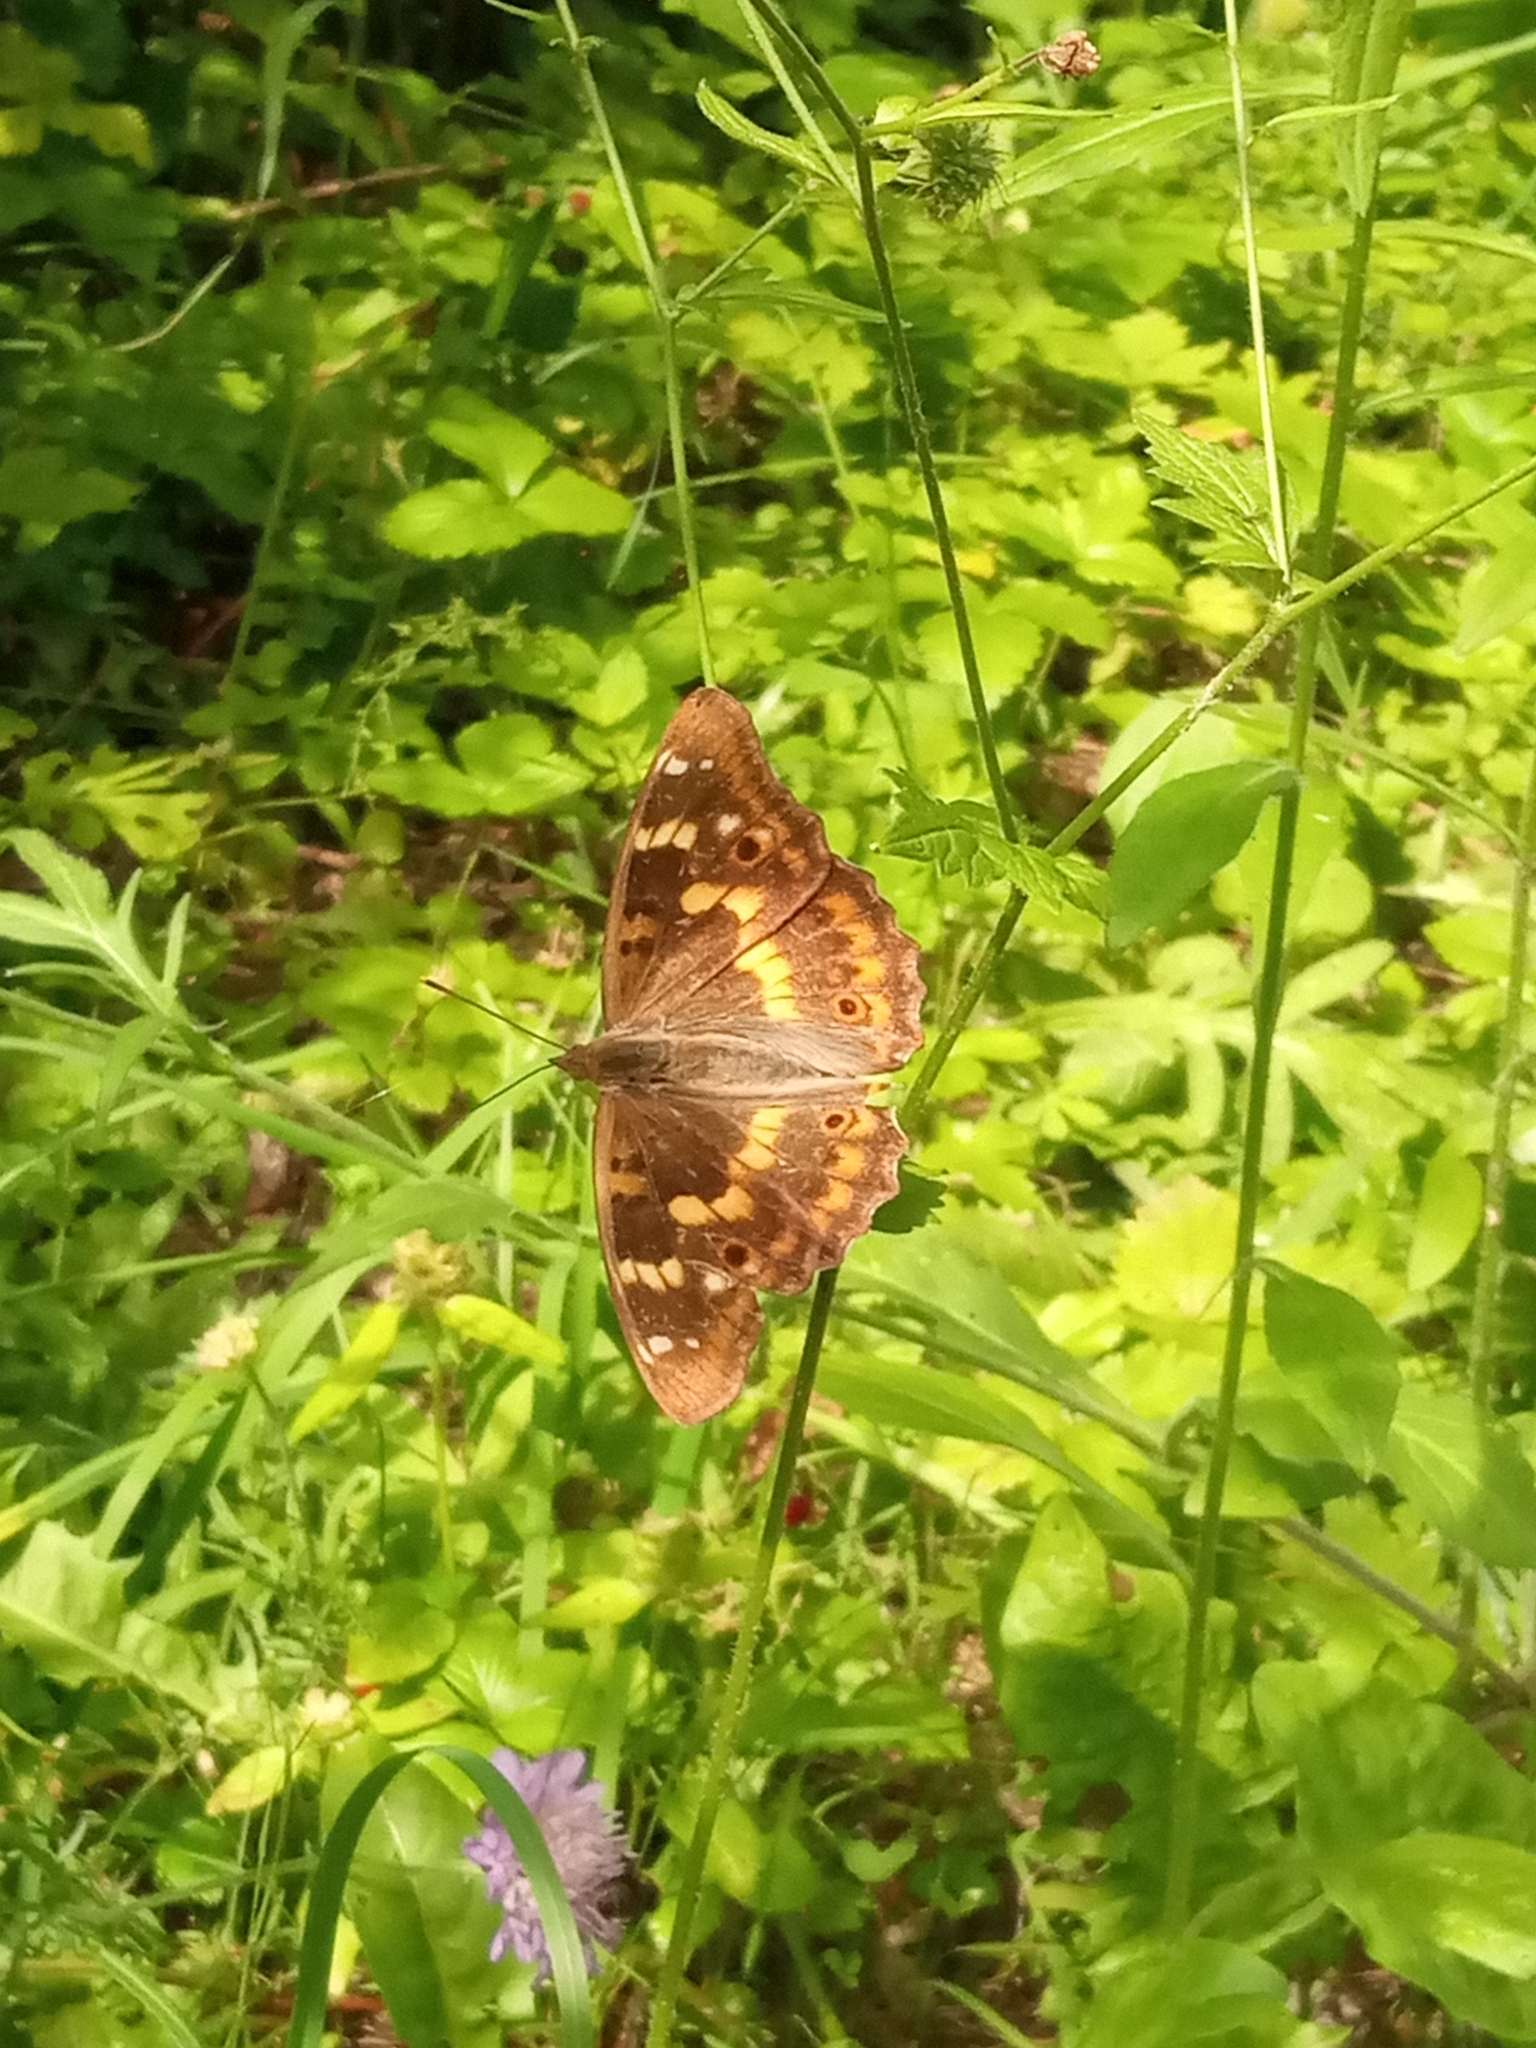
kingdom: Animalia
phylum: Arthropoda
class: Insecta
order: Lepidoptera
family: Nymphalidae
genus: Apatura
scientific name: Apatura ilia
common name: Lesser purple emperor
